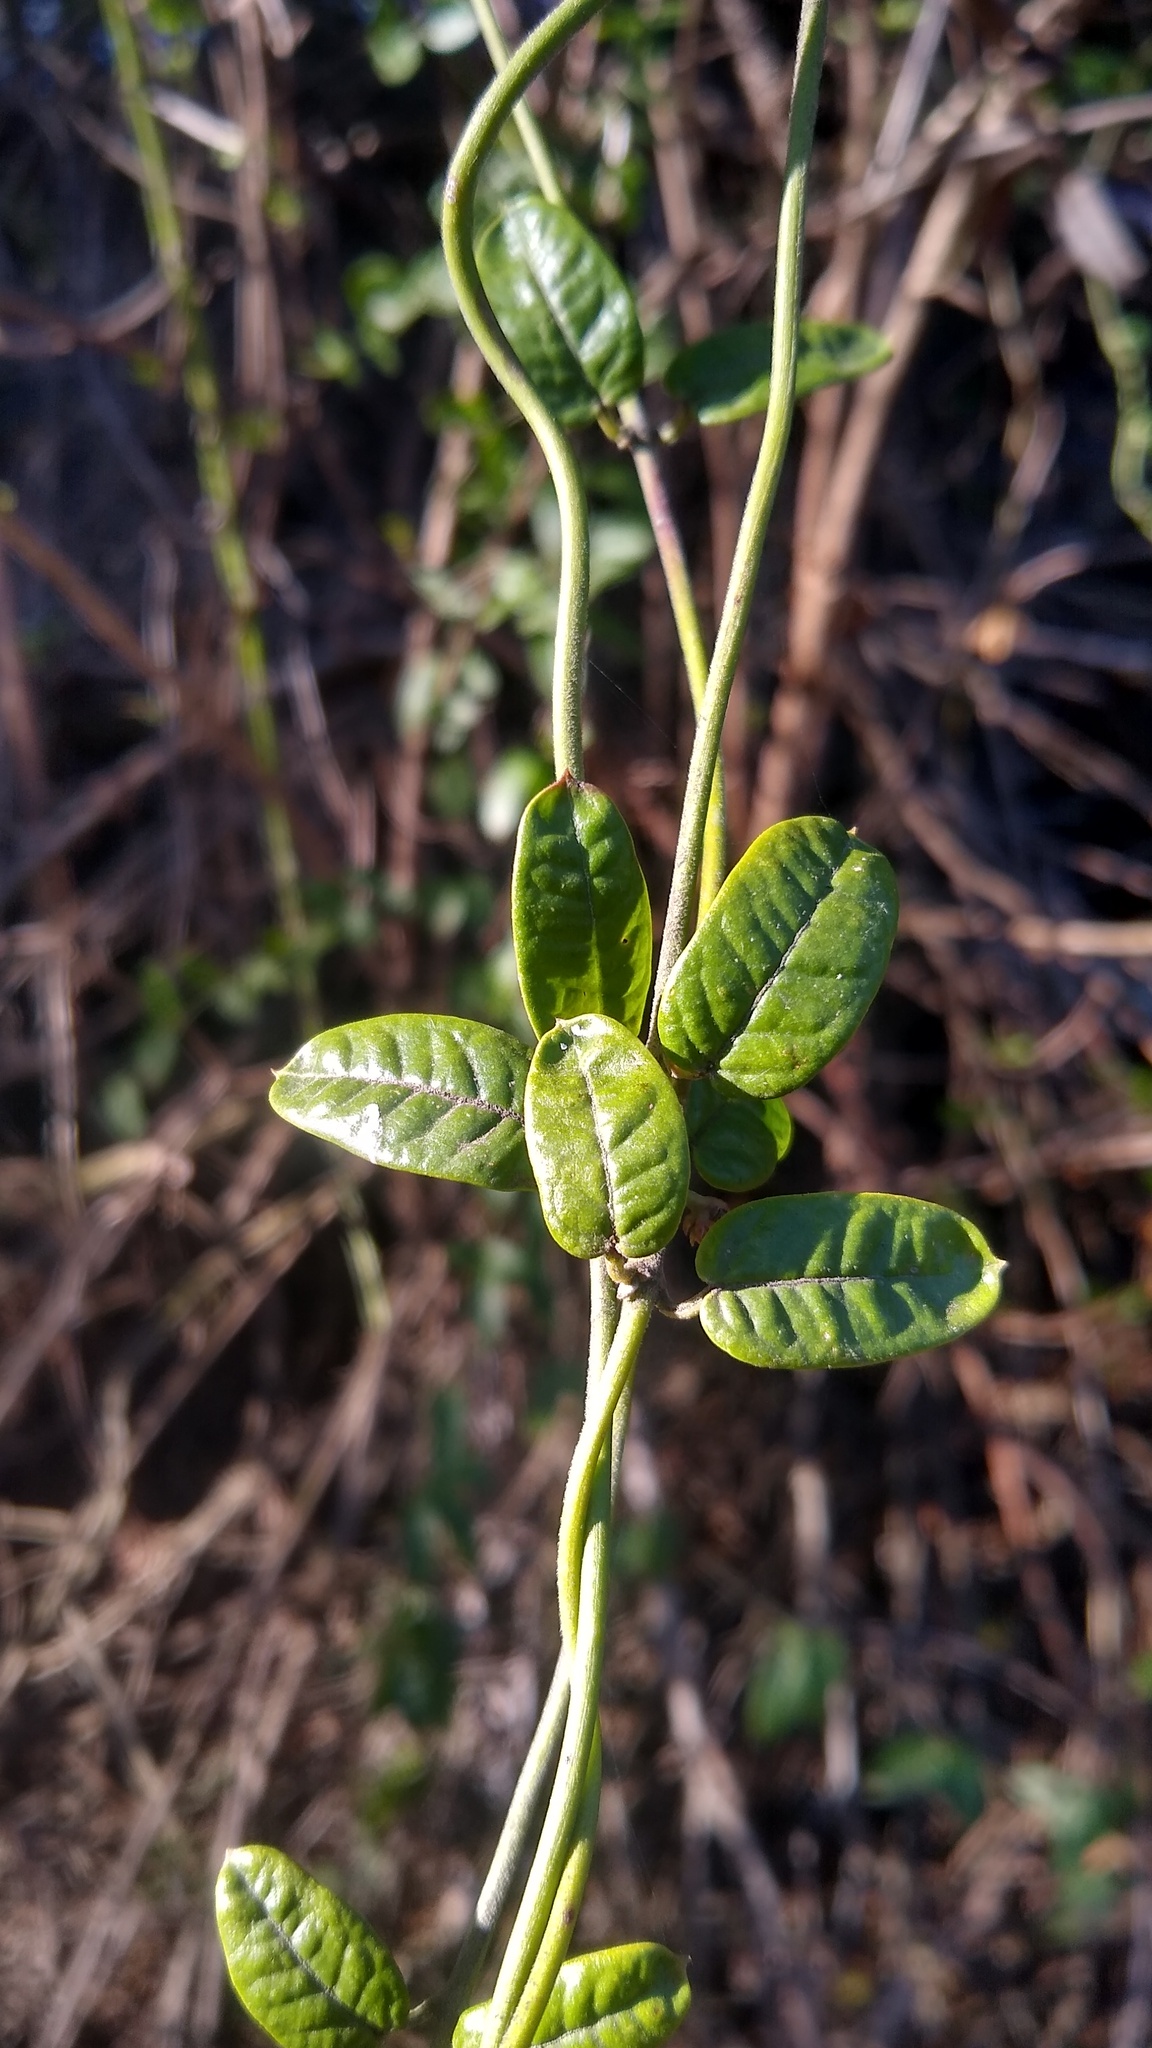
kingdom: Plantae
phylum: Tracheophyta
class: Magnoliopsida
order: Gentianales
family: Apocynaceae
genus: Diplolepis
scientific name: Diplolepis diemii
